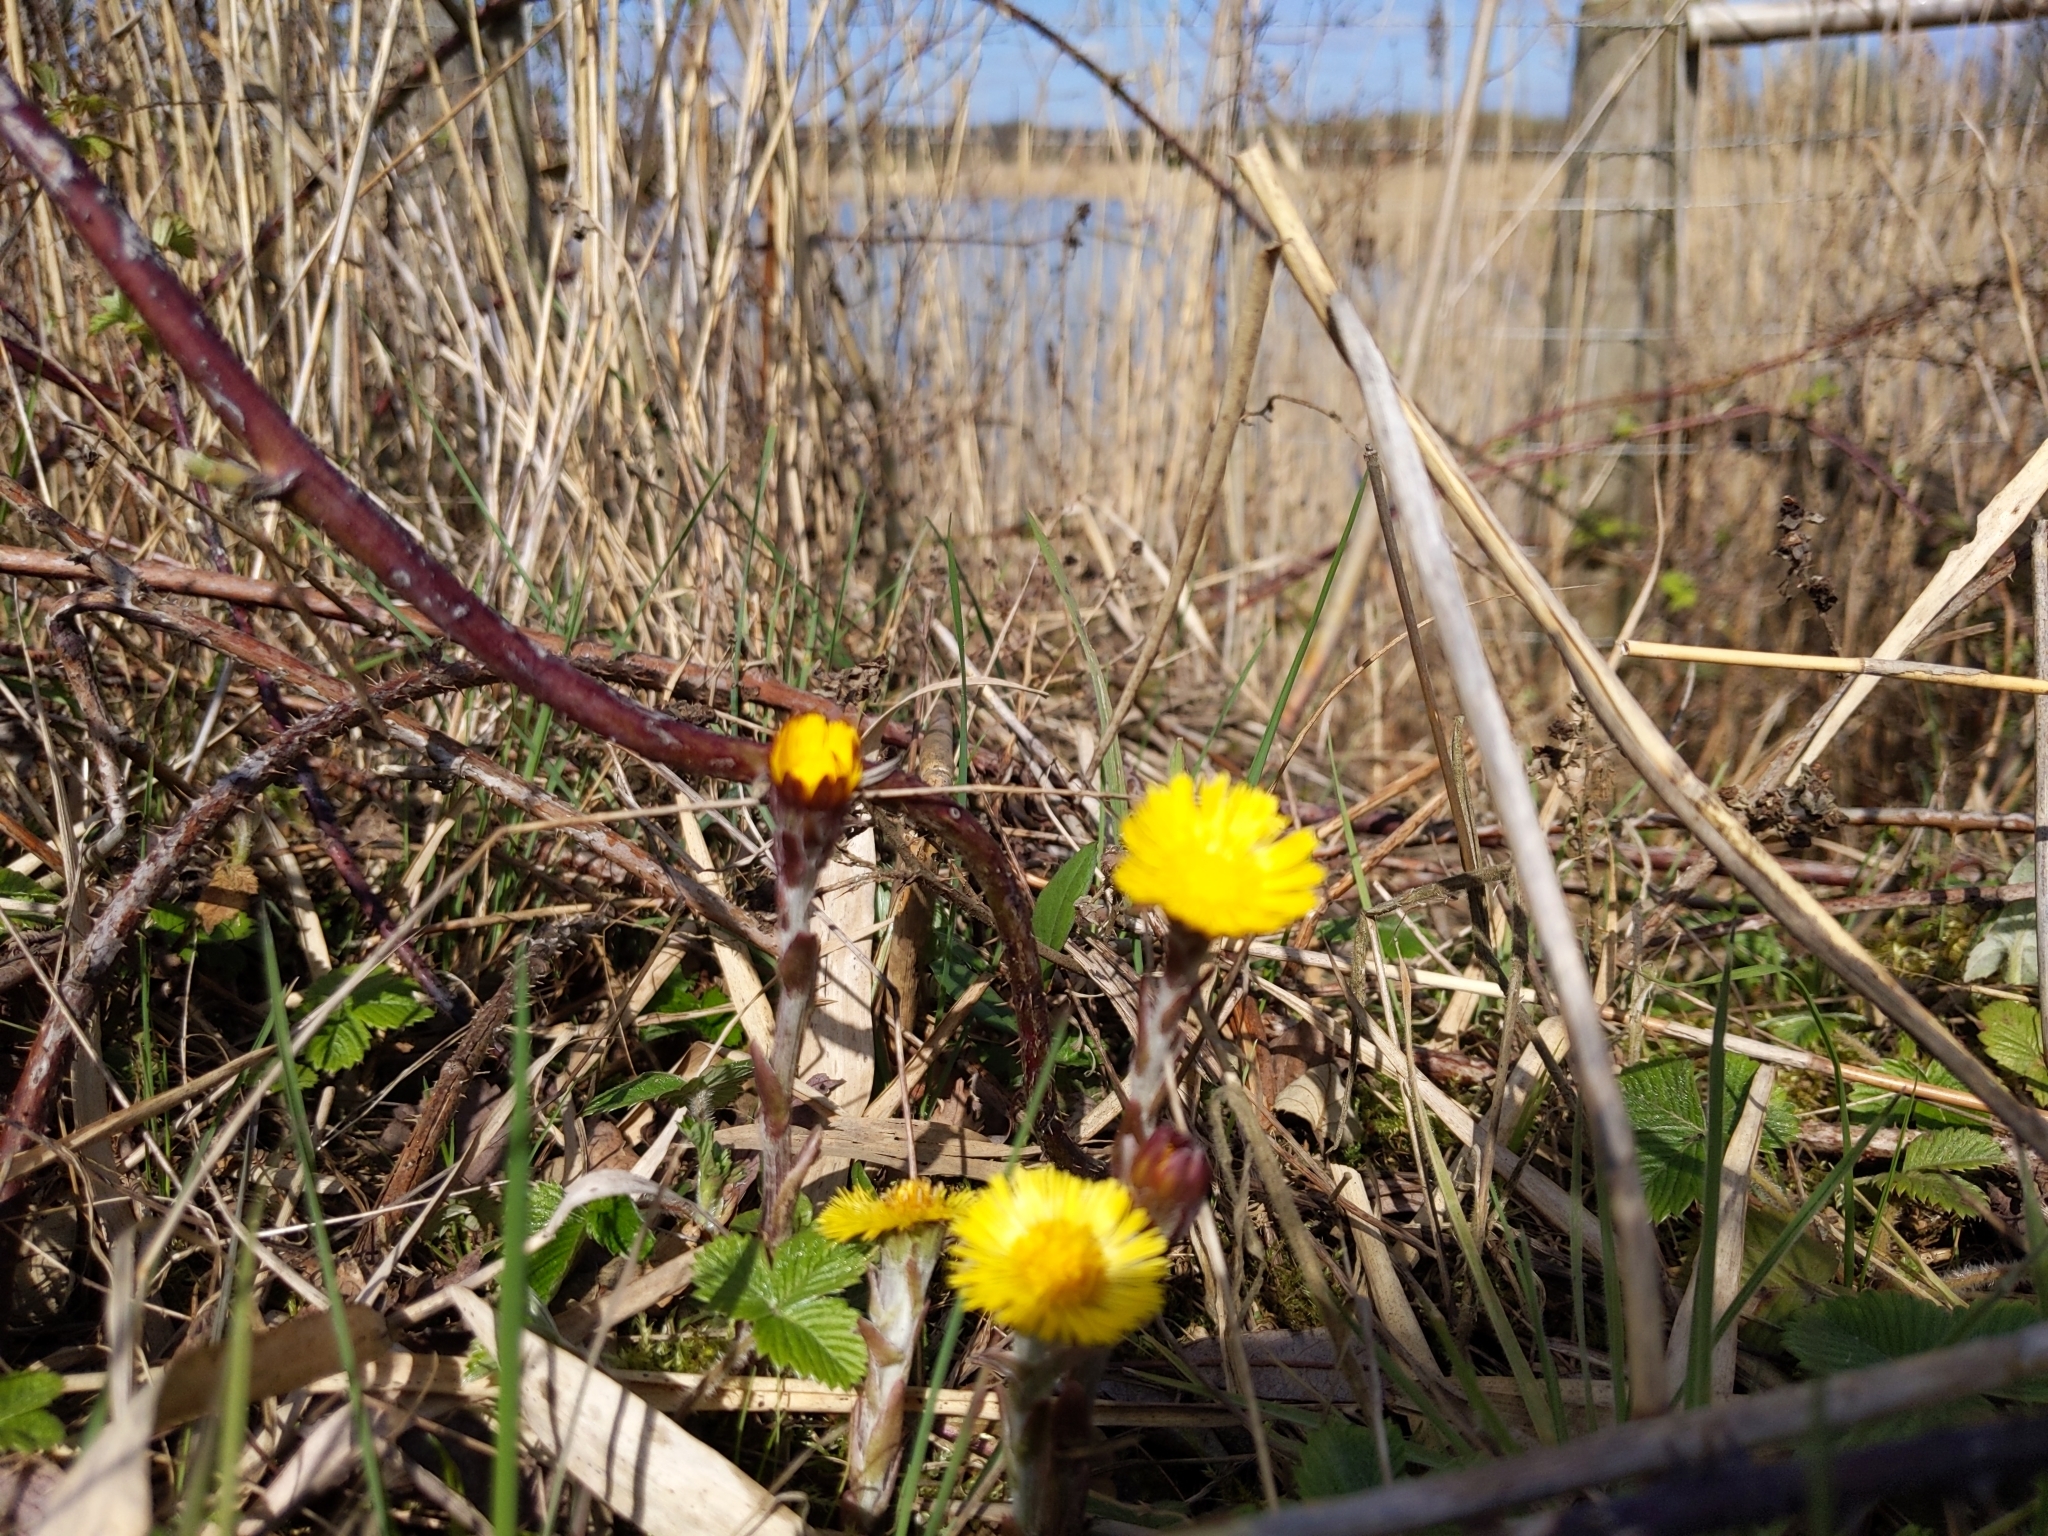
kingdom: Plantae
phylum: Tracheophyta
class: Magnoliopsida
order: Asterales
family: Asteraceae
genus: Tussilago
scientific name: Tussilago farfara
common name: Coltsfoot
